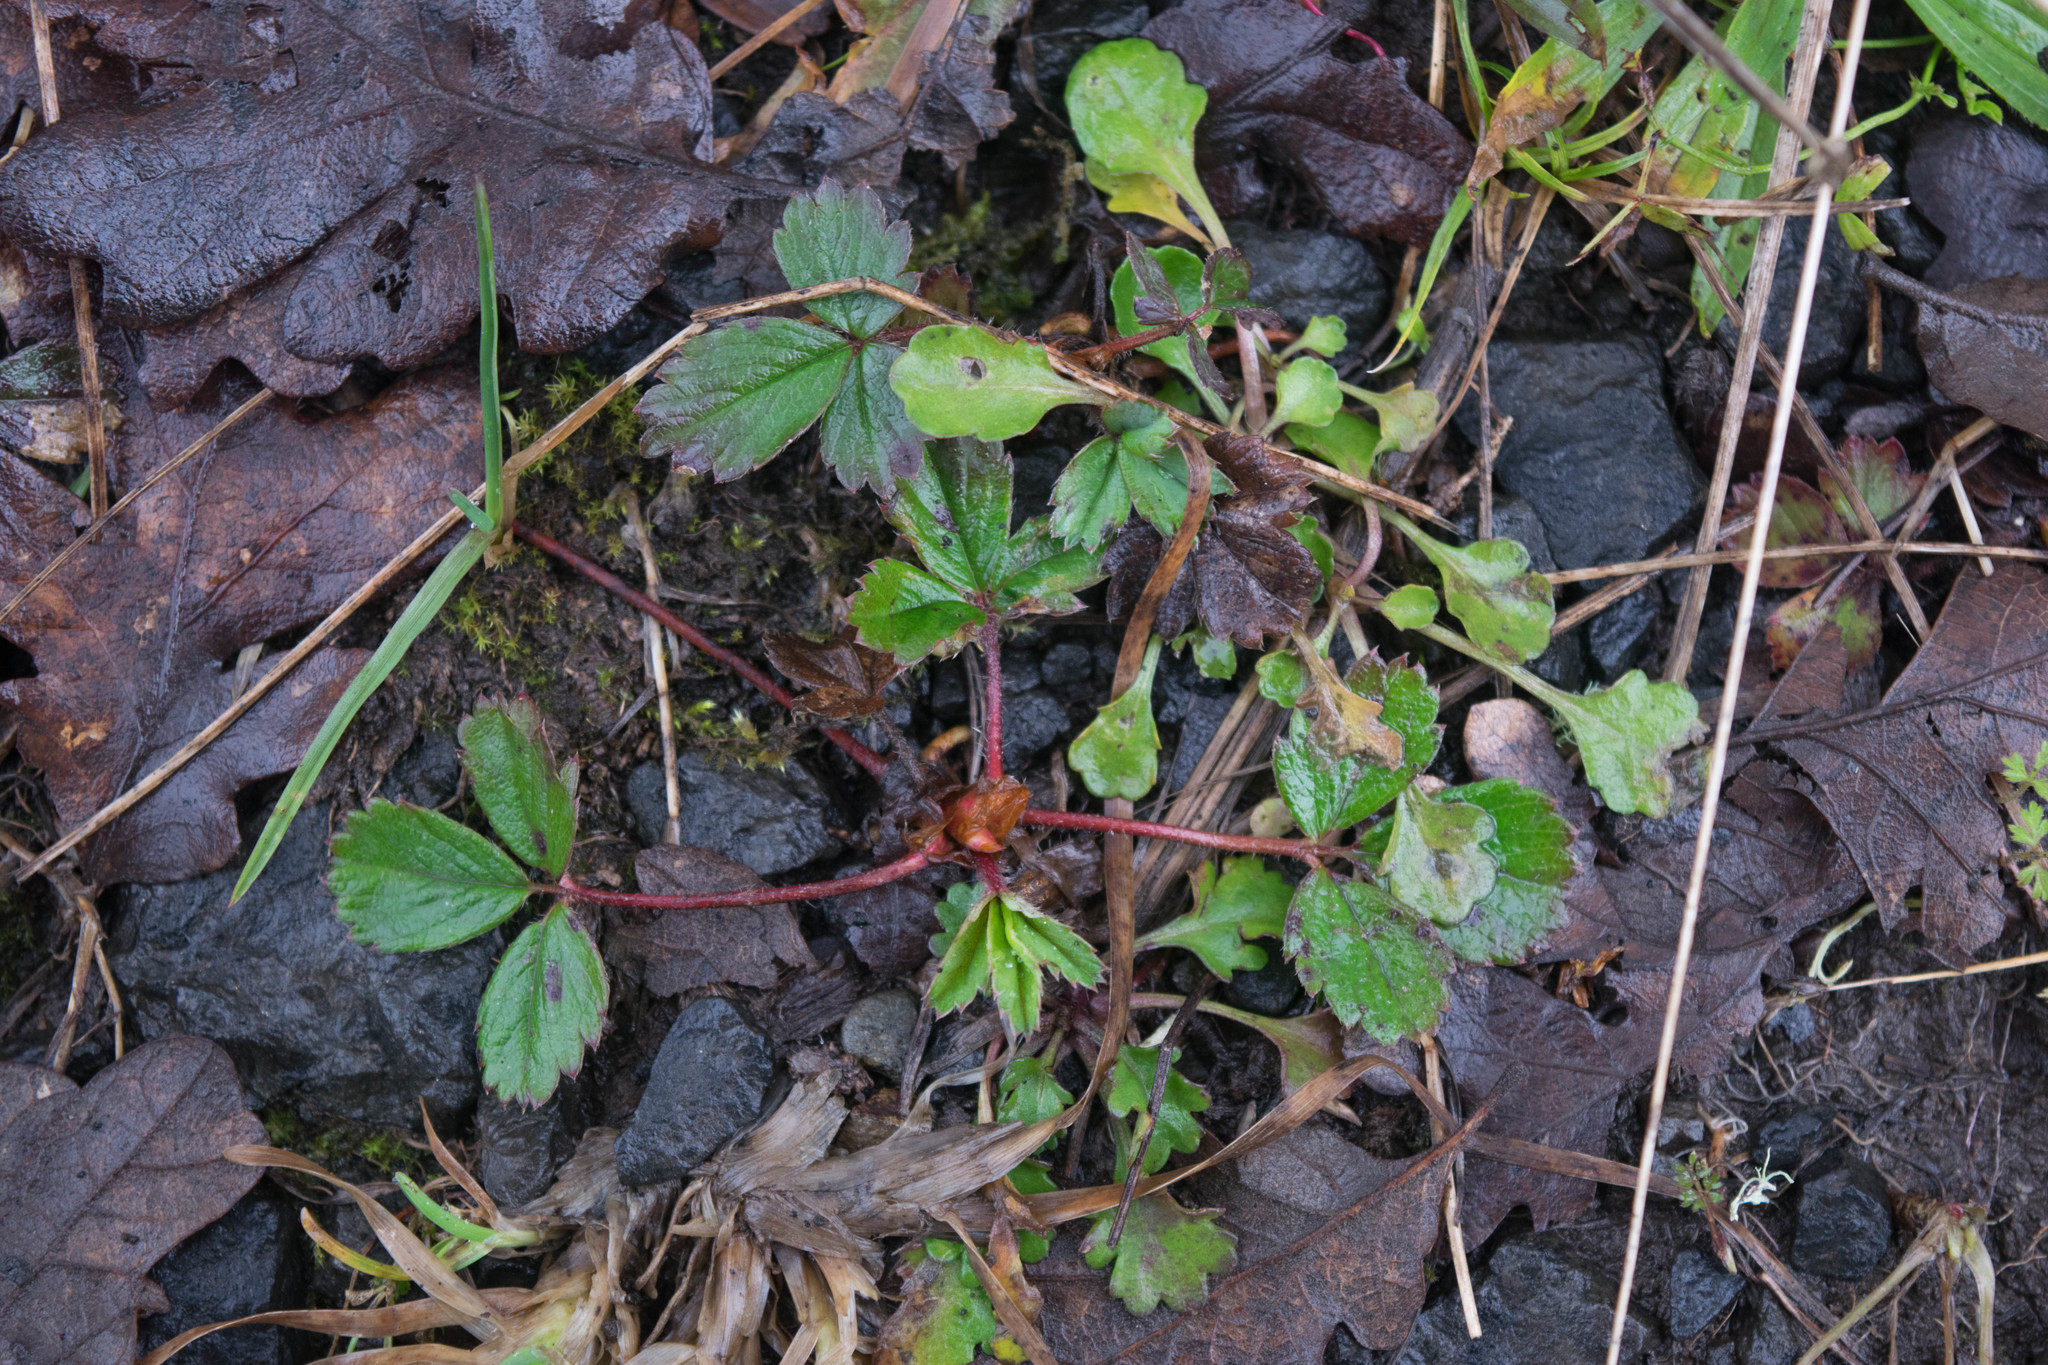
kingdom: Plantae
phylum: Tracheophyta
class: Magnoliopsida
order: Rosales
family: Rosaceae
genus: Fragaria
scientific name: Fragaria ananassa
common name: Garden strawberry
